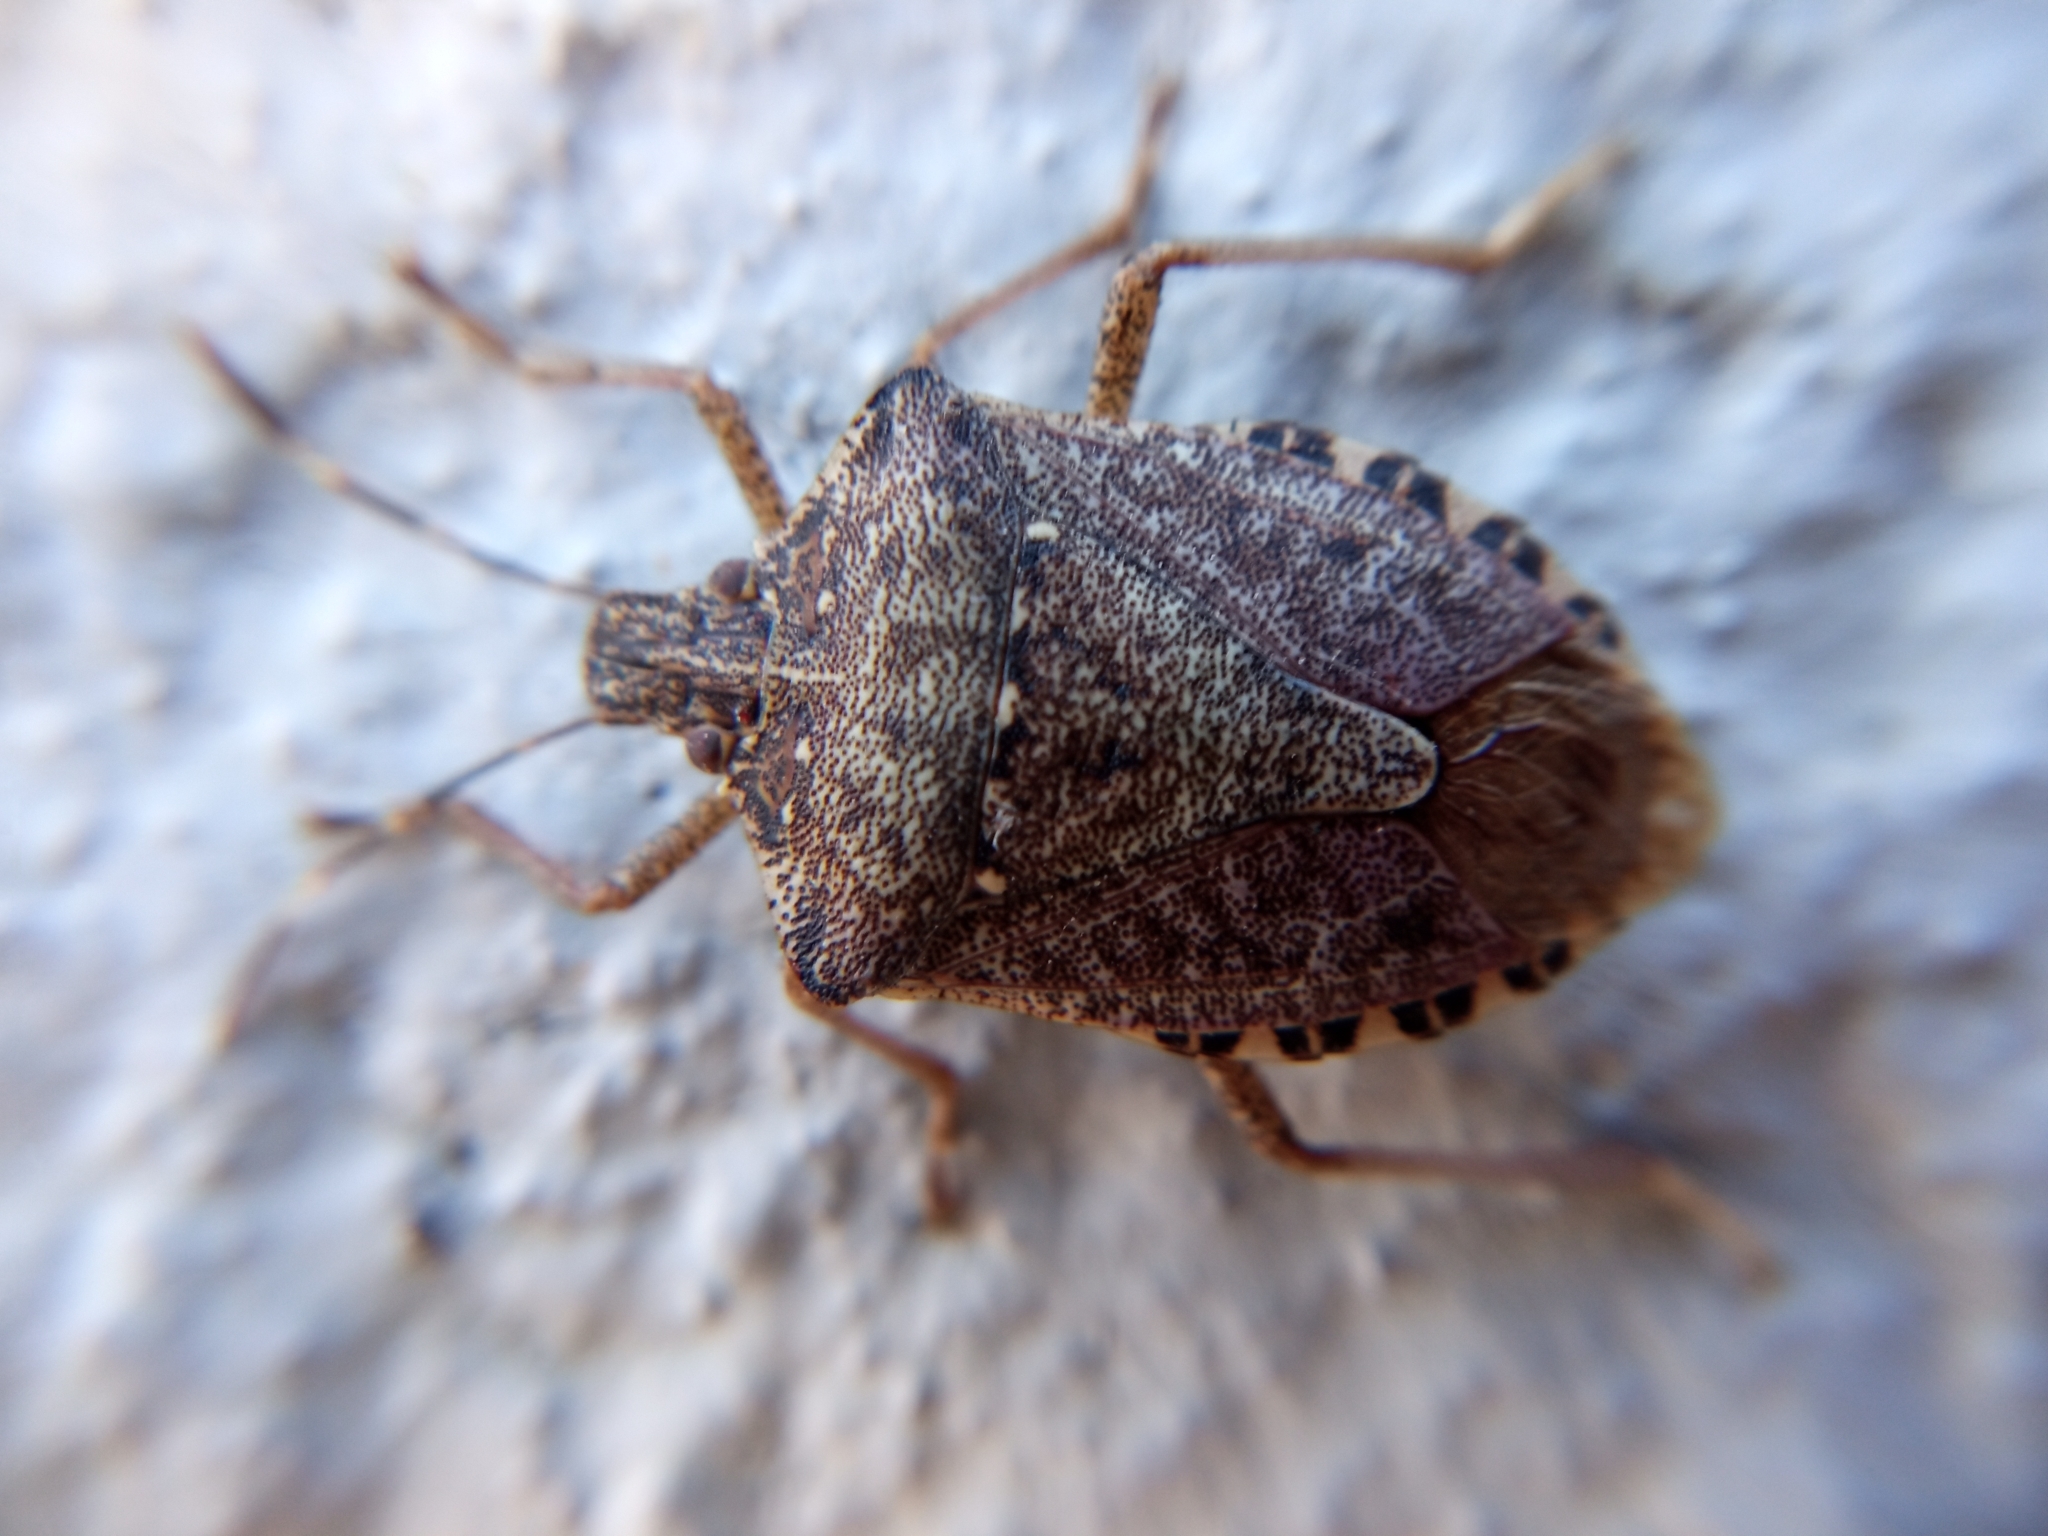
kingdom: Animalia
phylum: Arthropoda
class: Insecta
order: Hemiptera
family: Pentatomidae
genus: Halyomorpha
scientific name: Halyomorpha halys
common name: Brown marmorated stink bug
